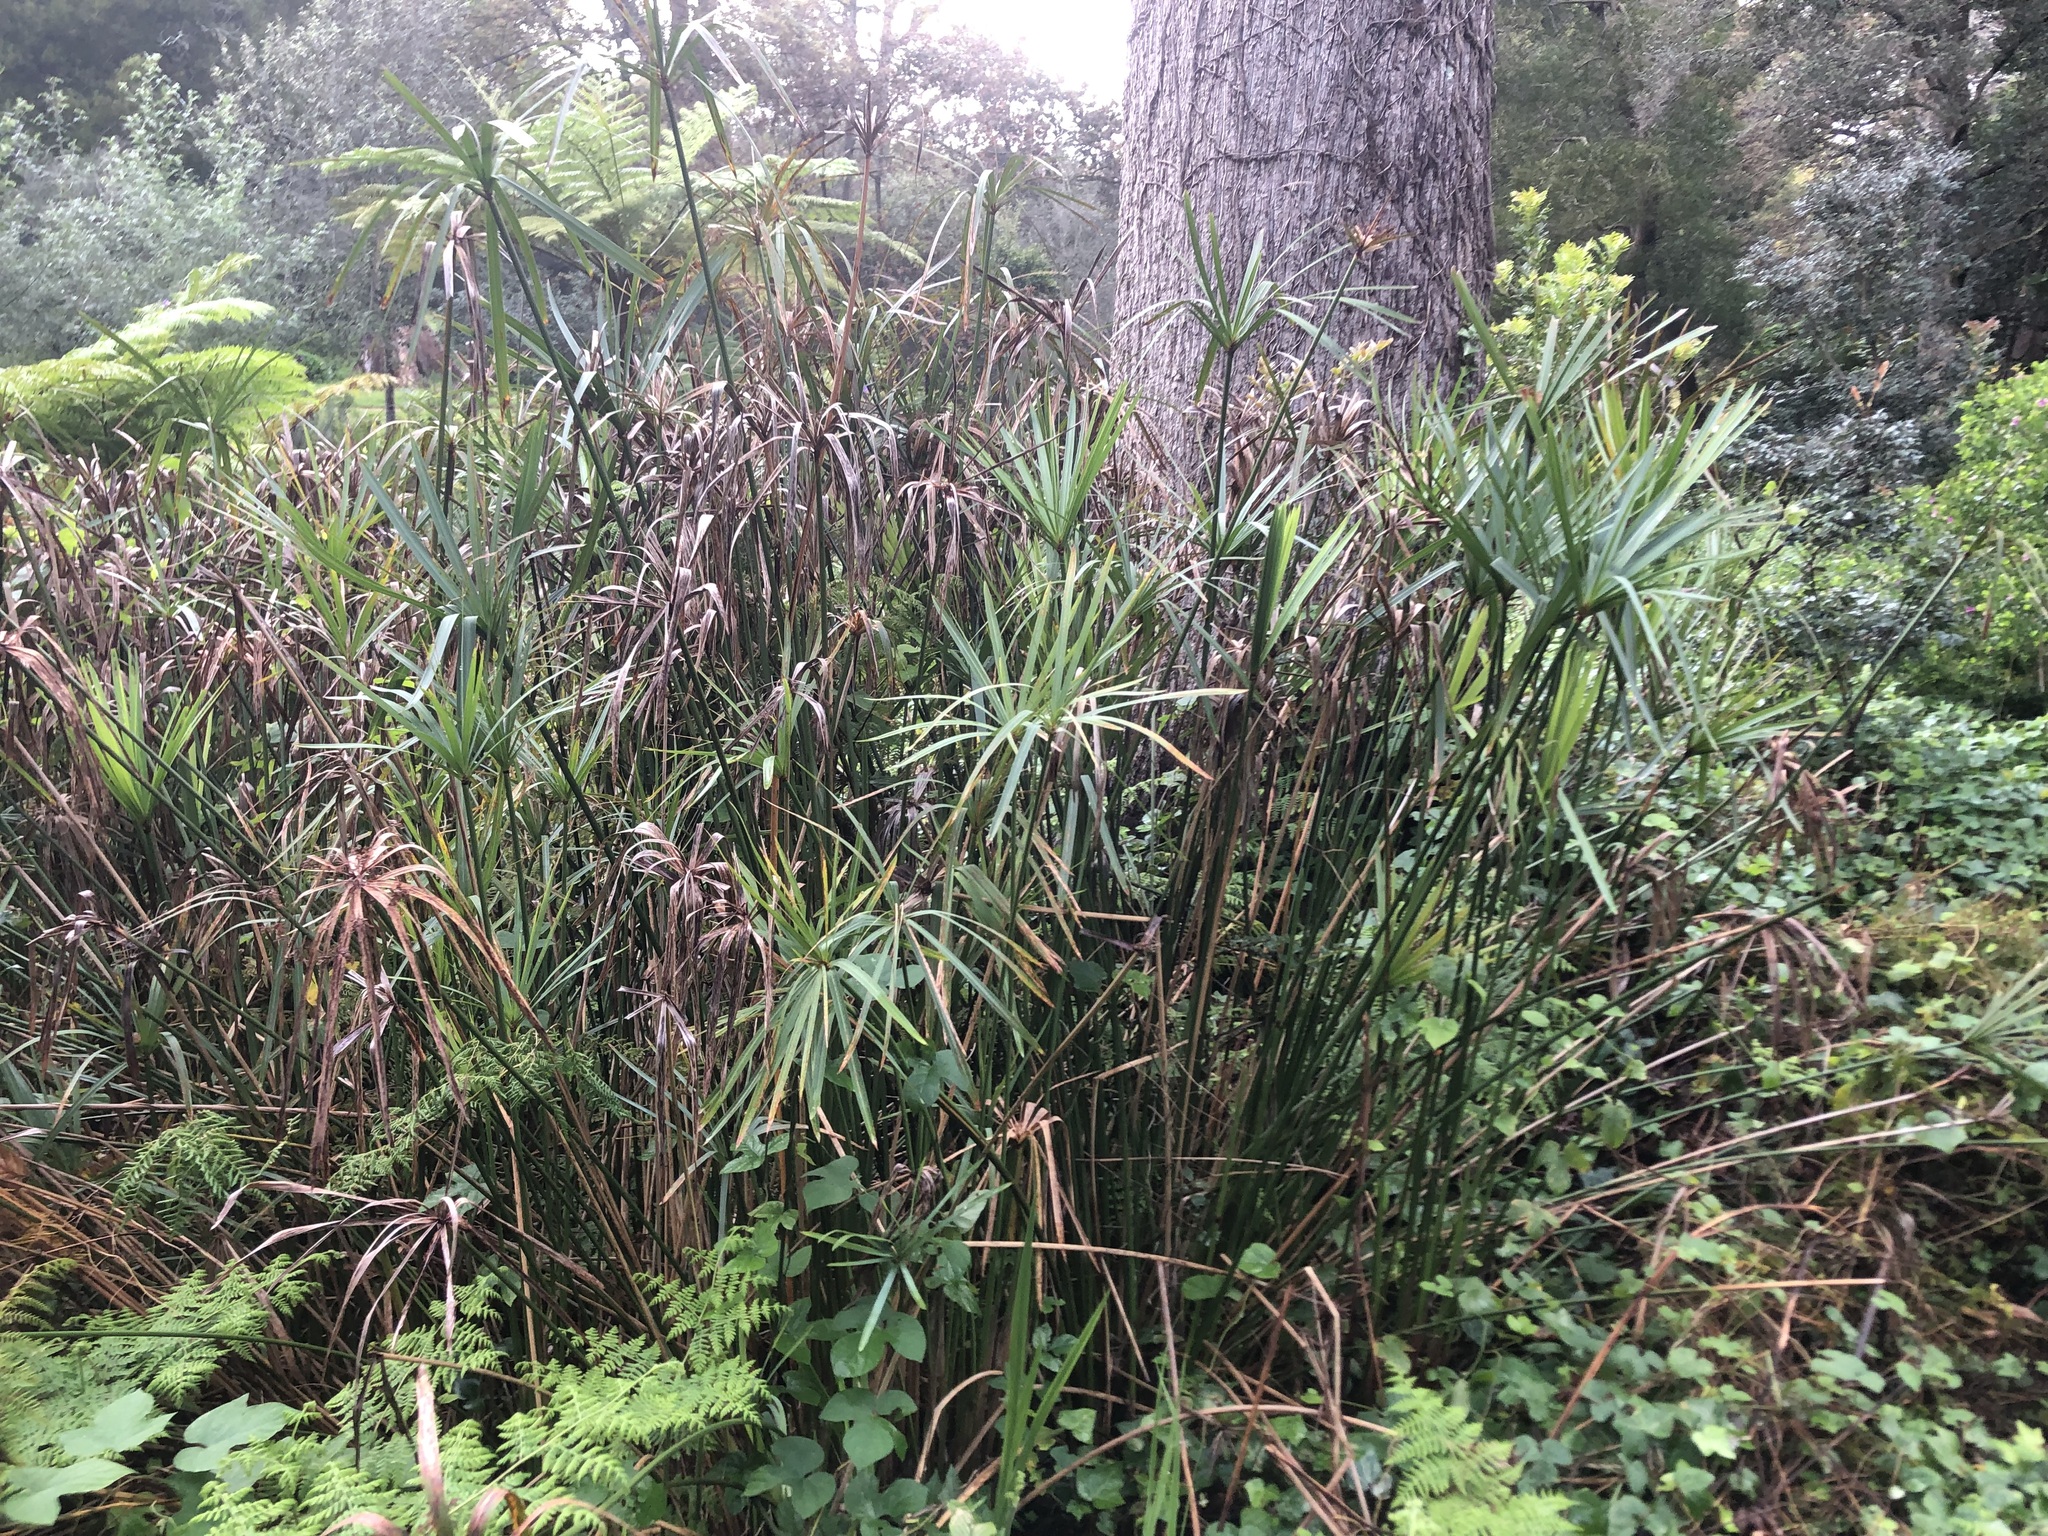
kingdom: Plantae
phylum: Tracheophyta
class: Liliopsida
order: Poales
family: Cyperaceae
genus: Cyperus
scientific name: Cyperus textilis
